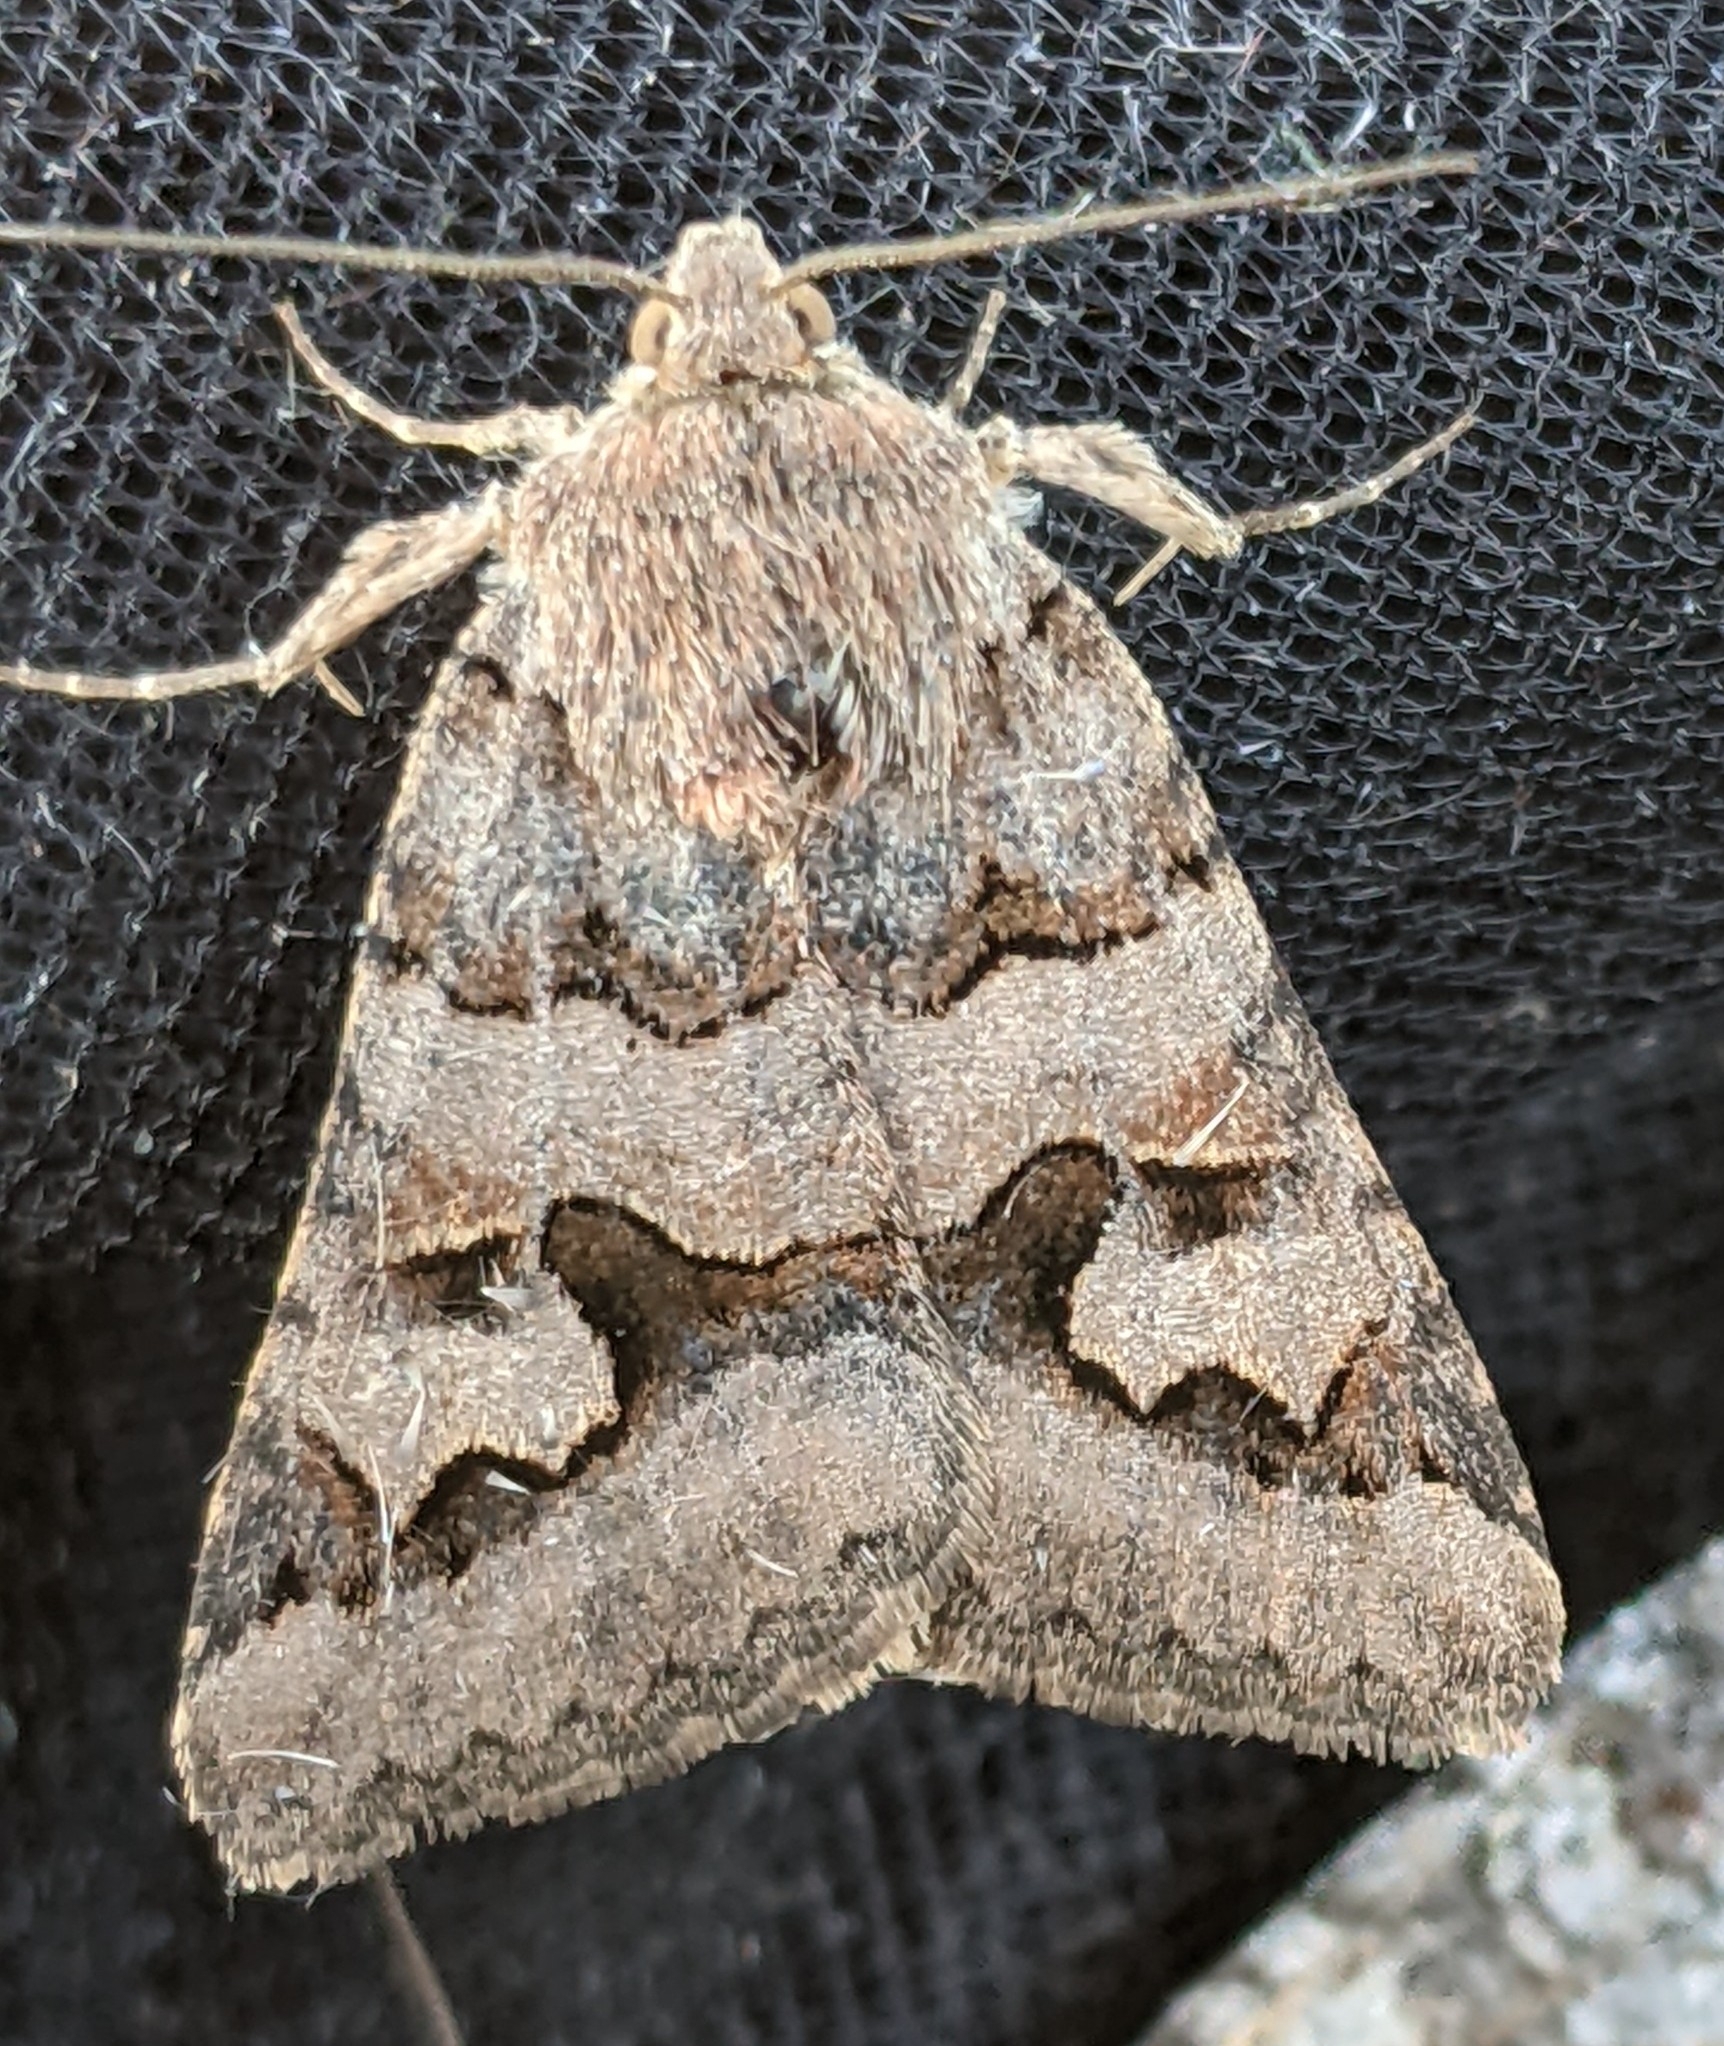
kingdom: Animalia
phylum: Arthropoda
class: Insecta
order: Lepidoptera
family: Erebidae
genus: Drasteria
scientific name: Drasteria adumbrata
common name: Shadowy arches
